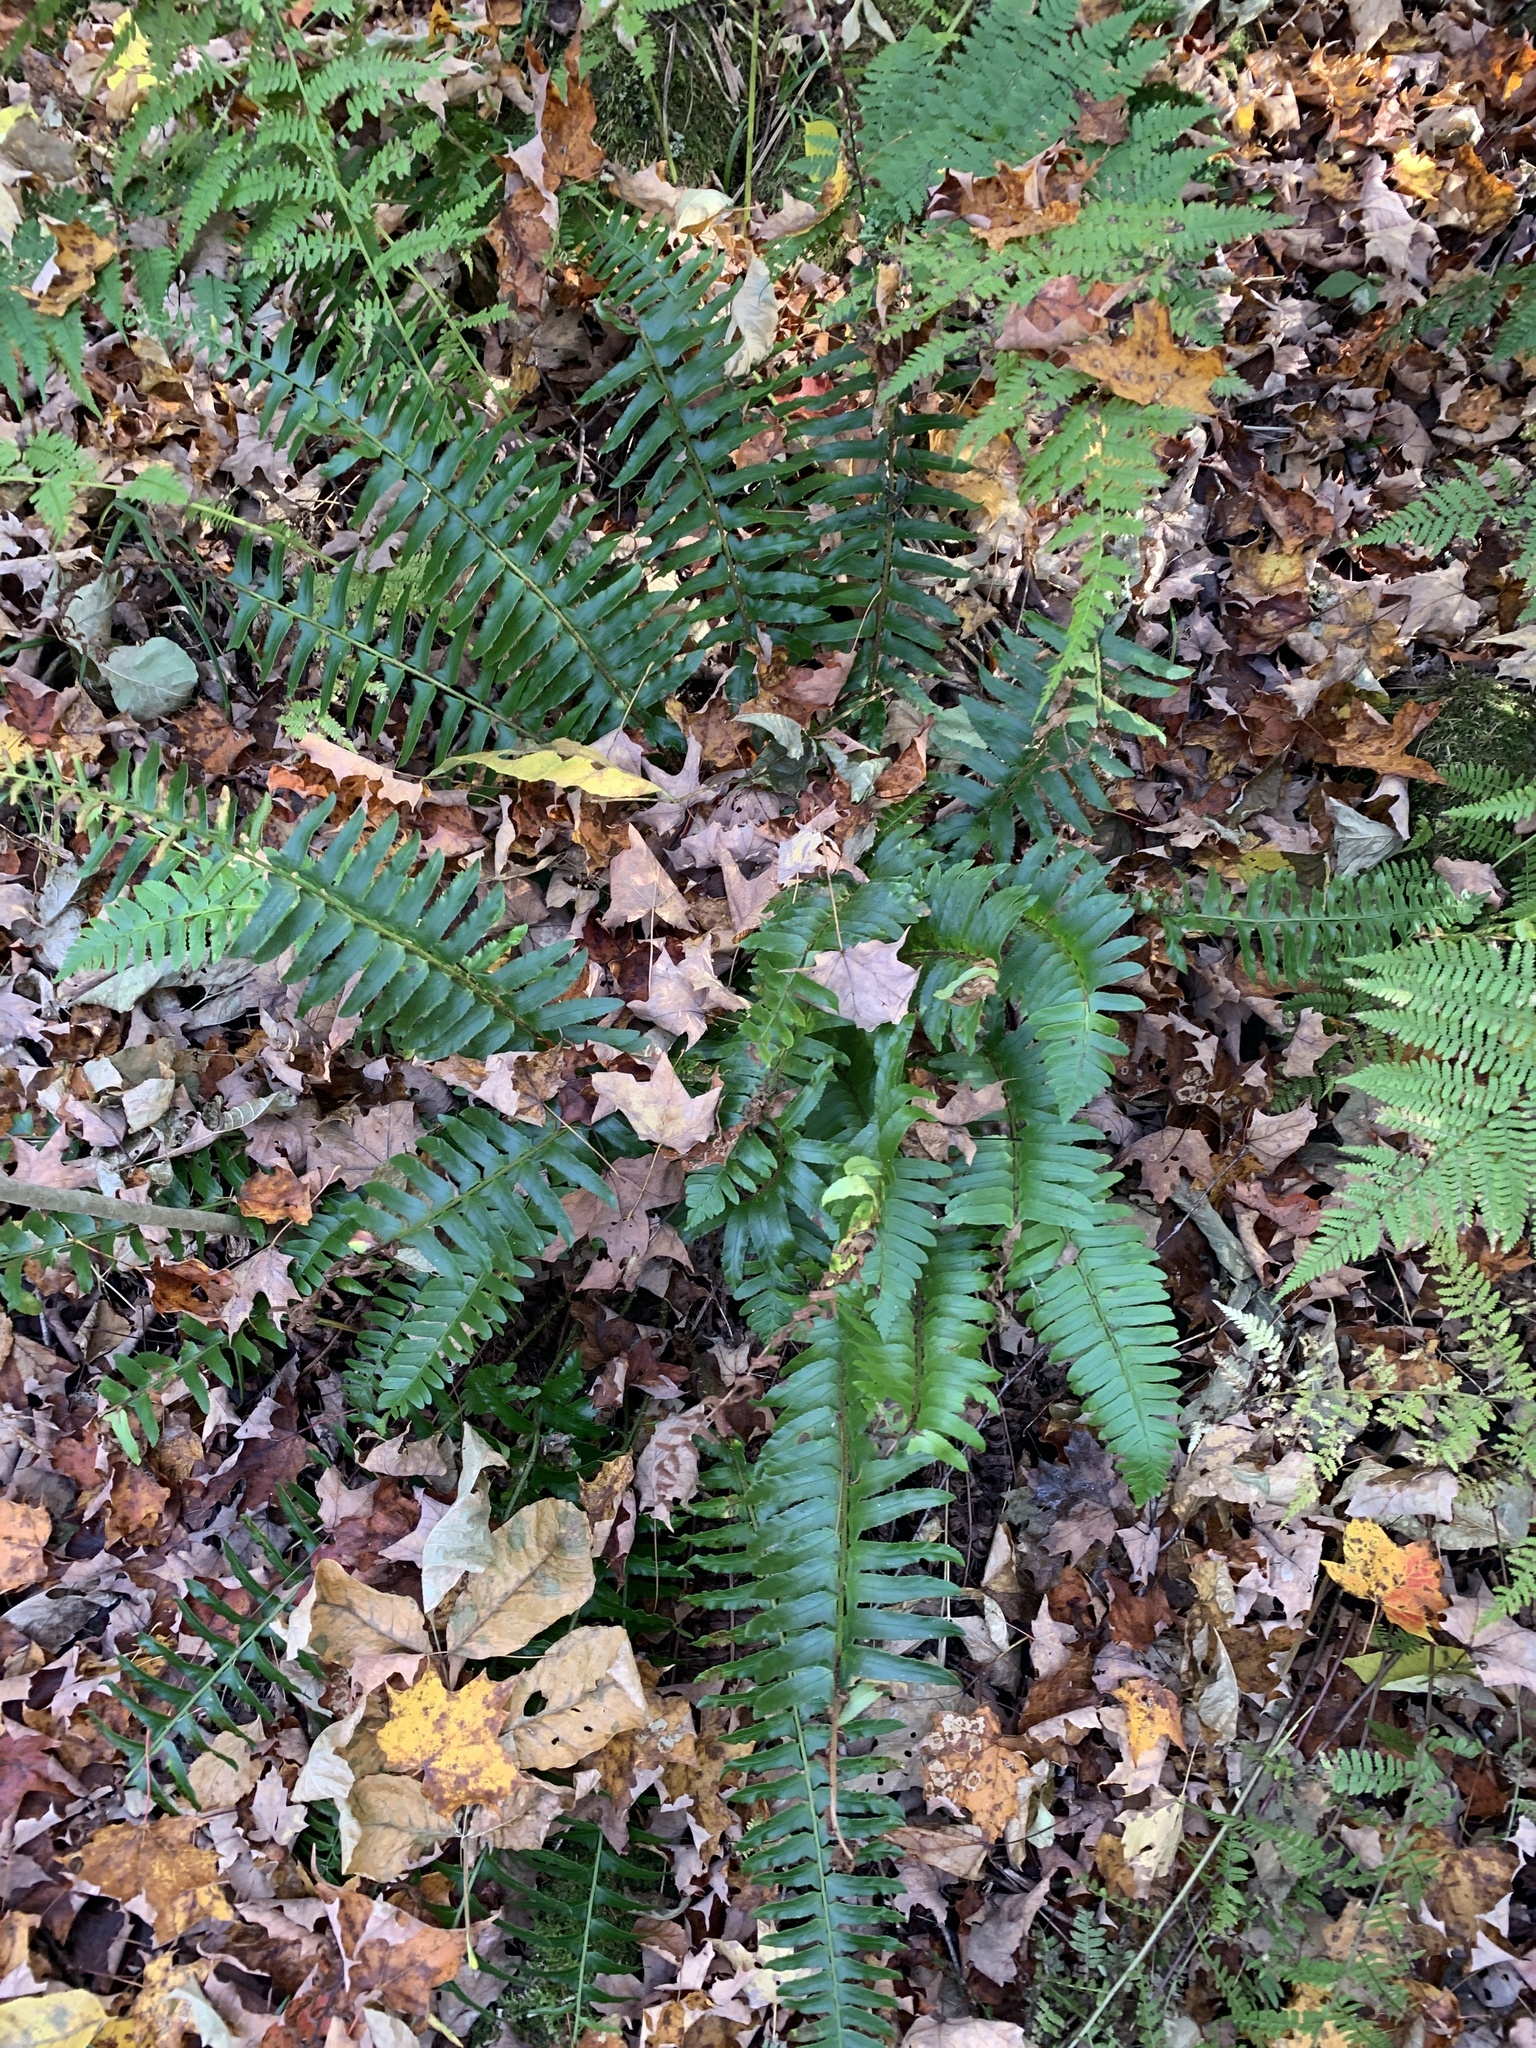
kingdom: Plantae
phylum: Tracheophyta
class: Polypodiopsida
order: Polypodiales
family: Dryopteridaceae
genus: Polystichum
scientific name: Polystichum acrostichoides
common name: Christmas fern
